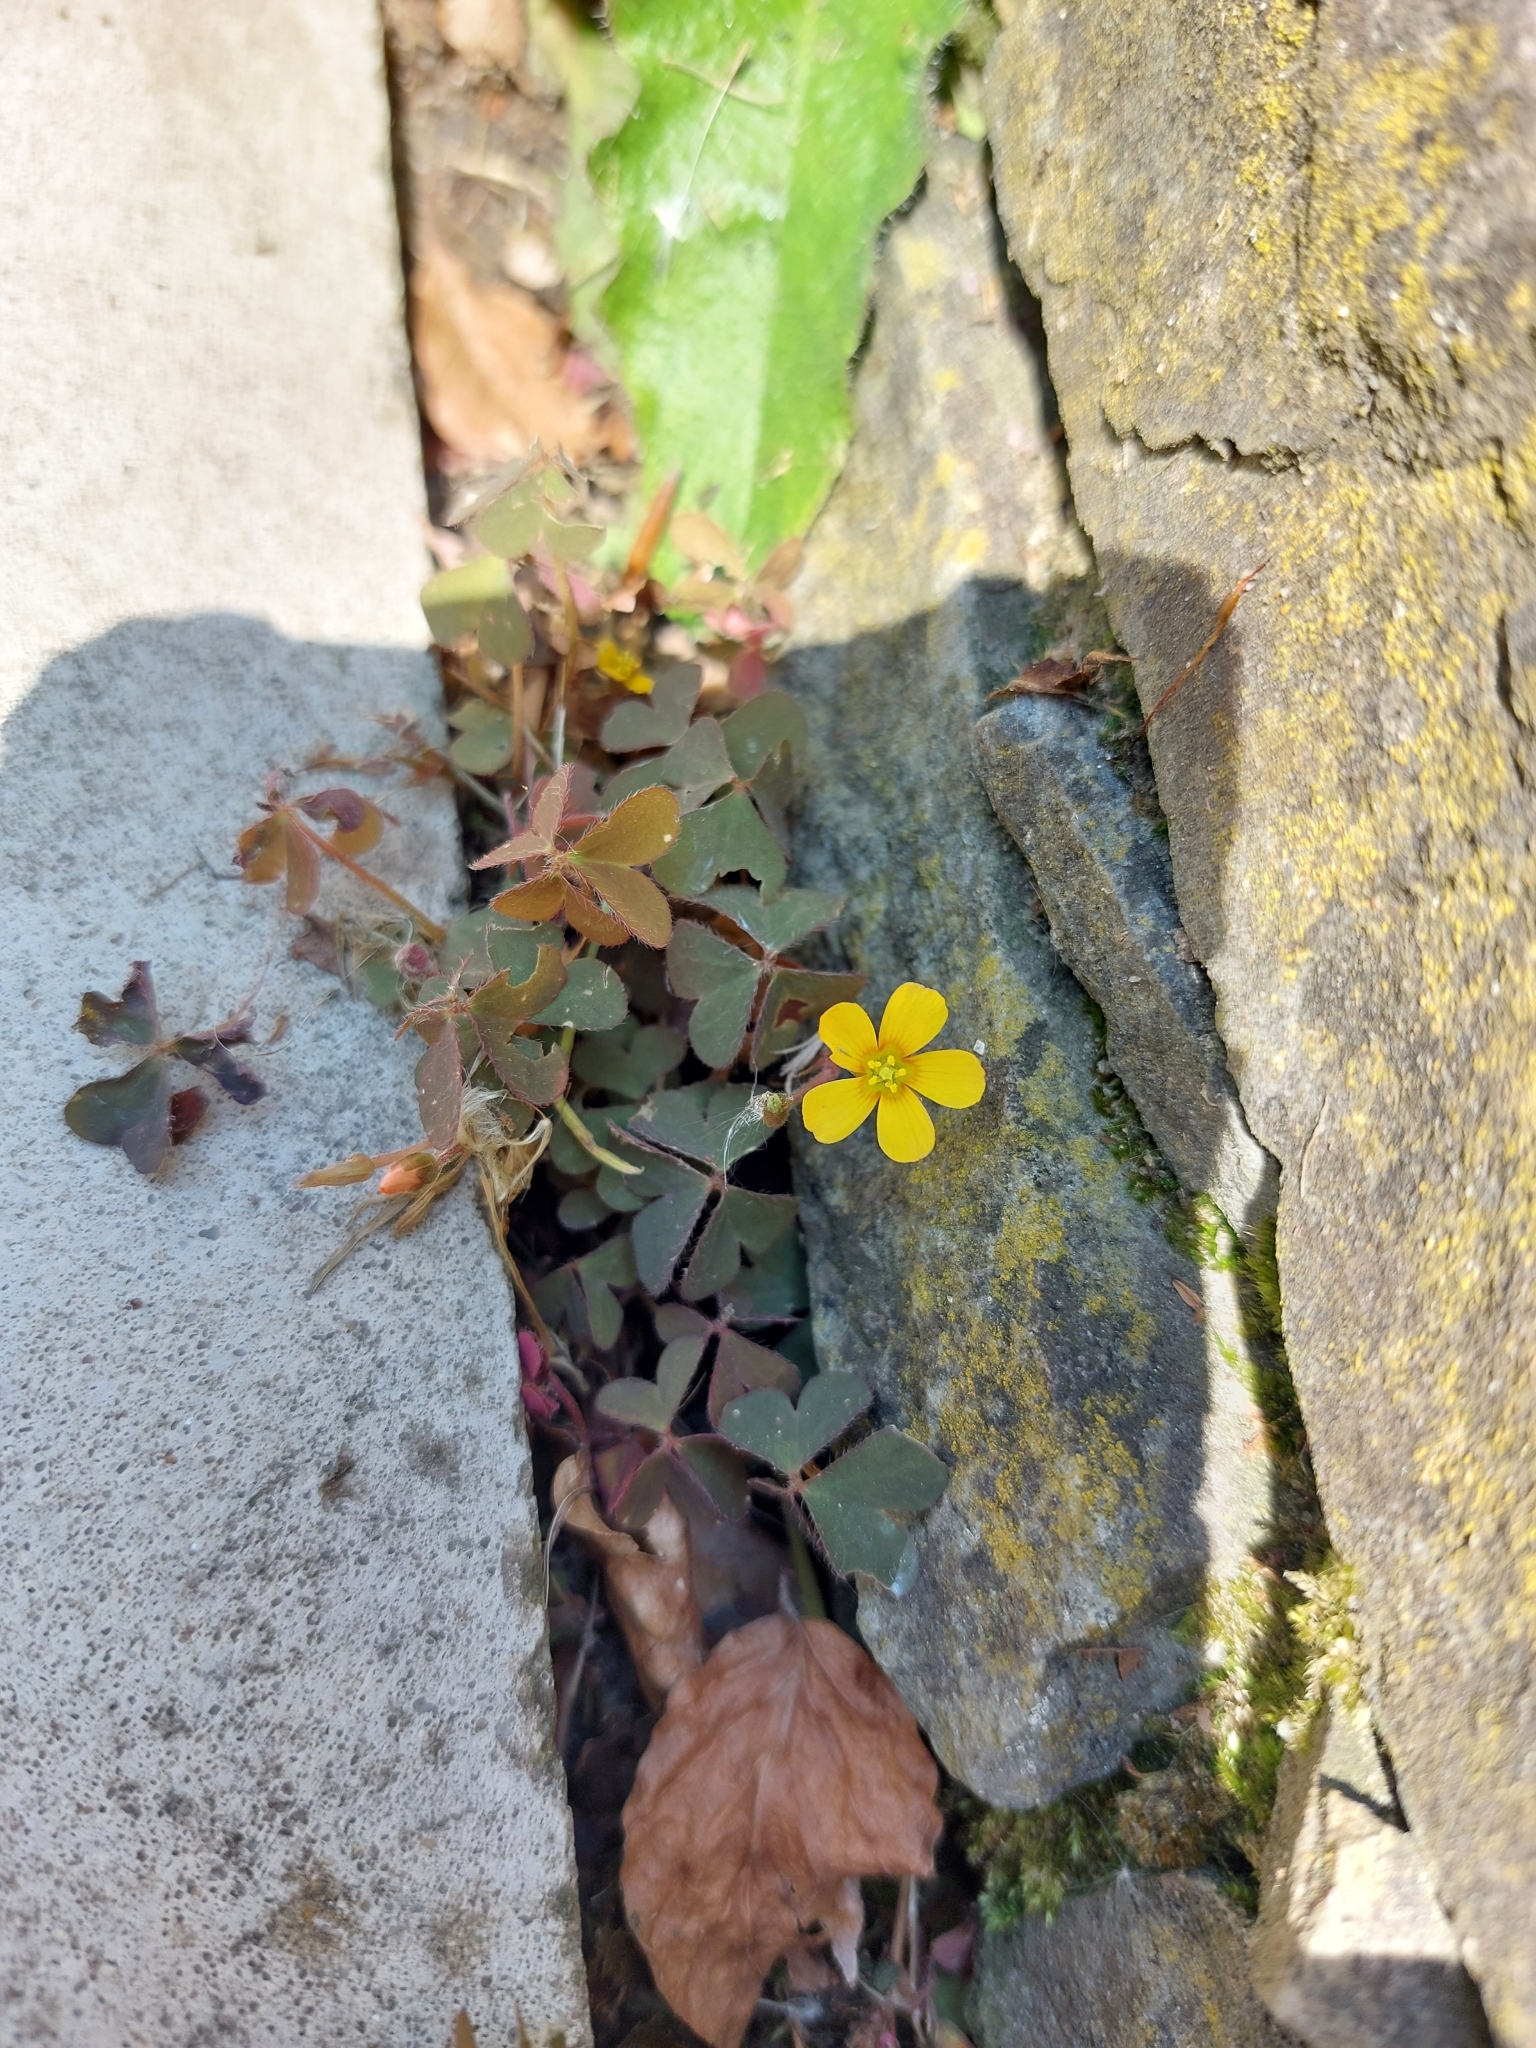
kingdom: Plantae
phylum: Tracheophyta
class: Magnoliopsida
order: Oxalidales
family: Oxalidaceae
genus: Oxalis
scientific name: Oxalis corniculata
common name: Procumbent yellow-sorrel
